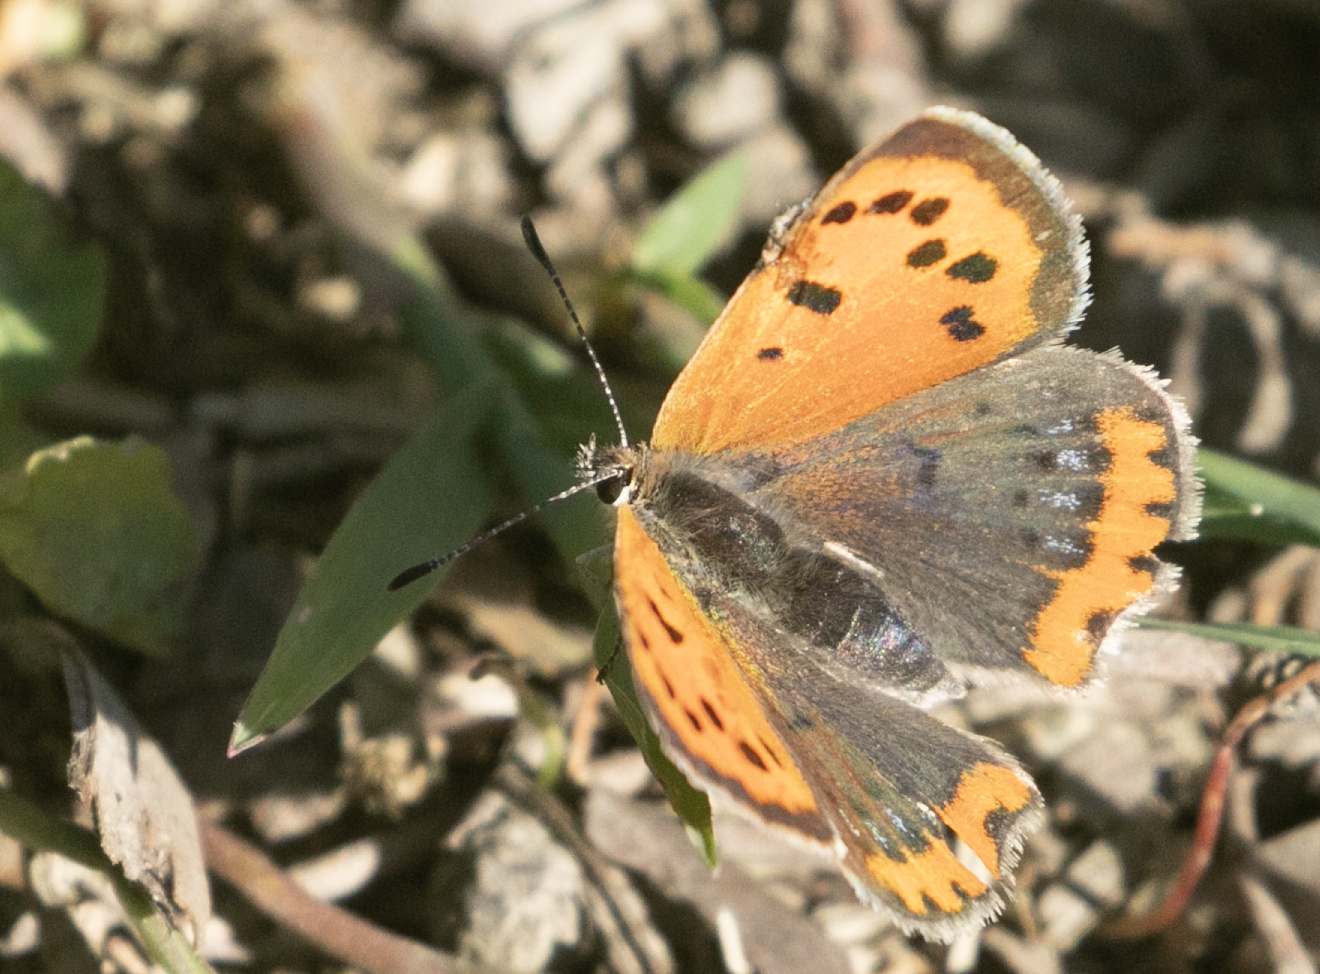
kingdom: Animalia
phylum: Arthropoda
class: Insecta
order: Lepidoptera
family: Lycaenidae
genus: Lycaena
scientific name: Lycaena phlaeas
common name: Small copper
